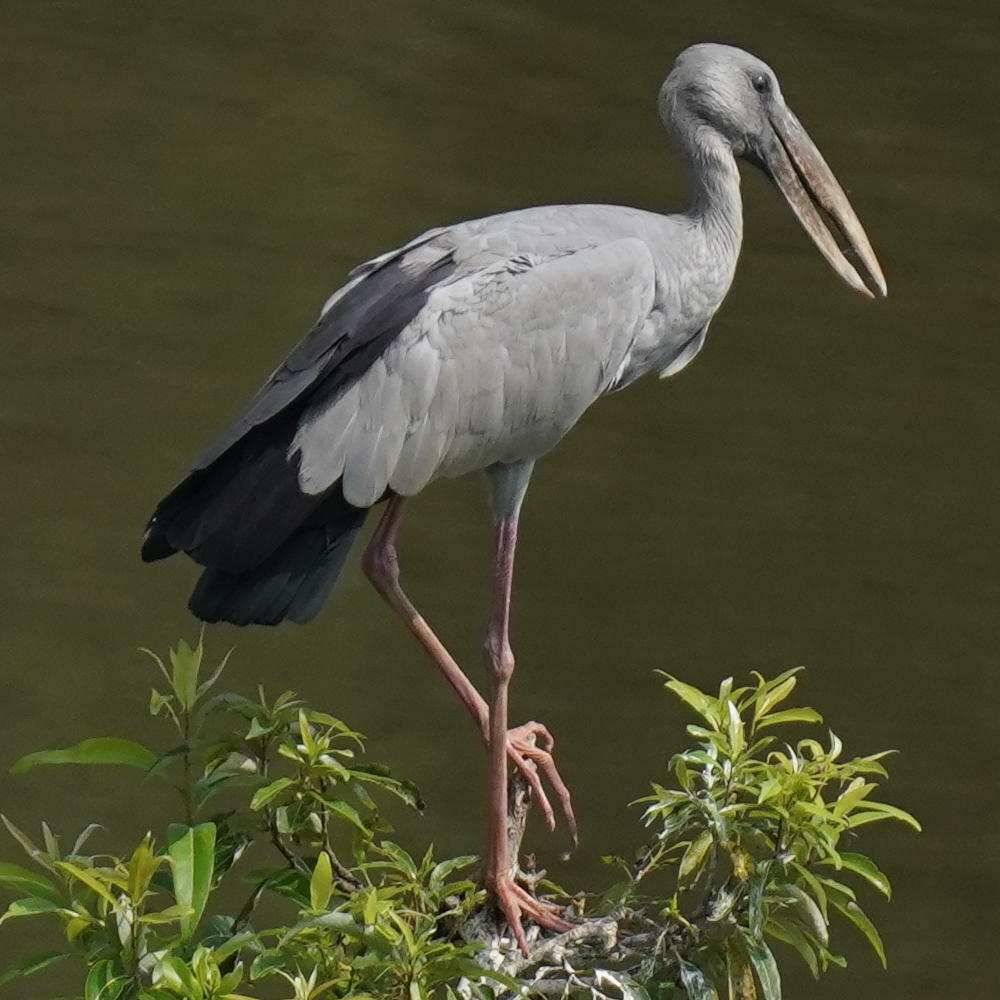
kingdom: Animalia
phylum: Chordata
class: Aves
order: Ciconiiformes
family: Ciconiidae
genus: Anastomus
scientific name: Anastomus oscitans
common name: Asian openbill
